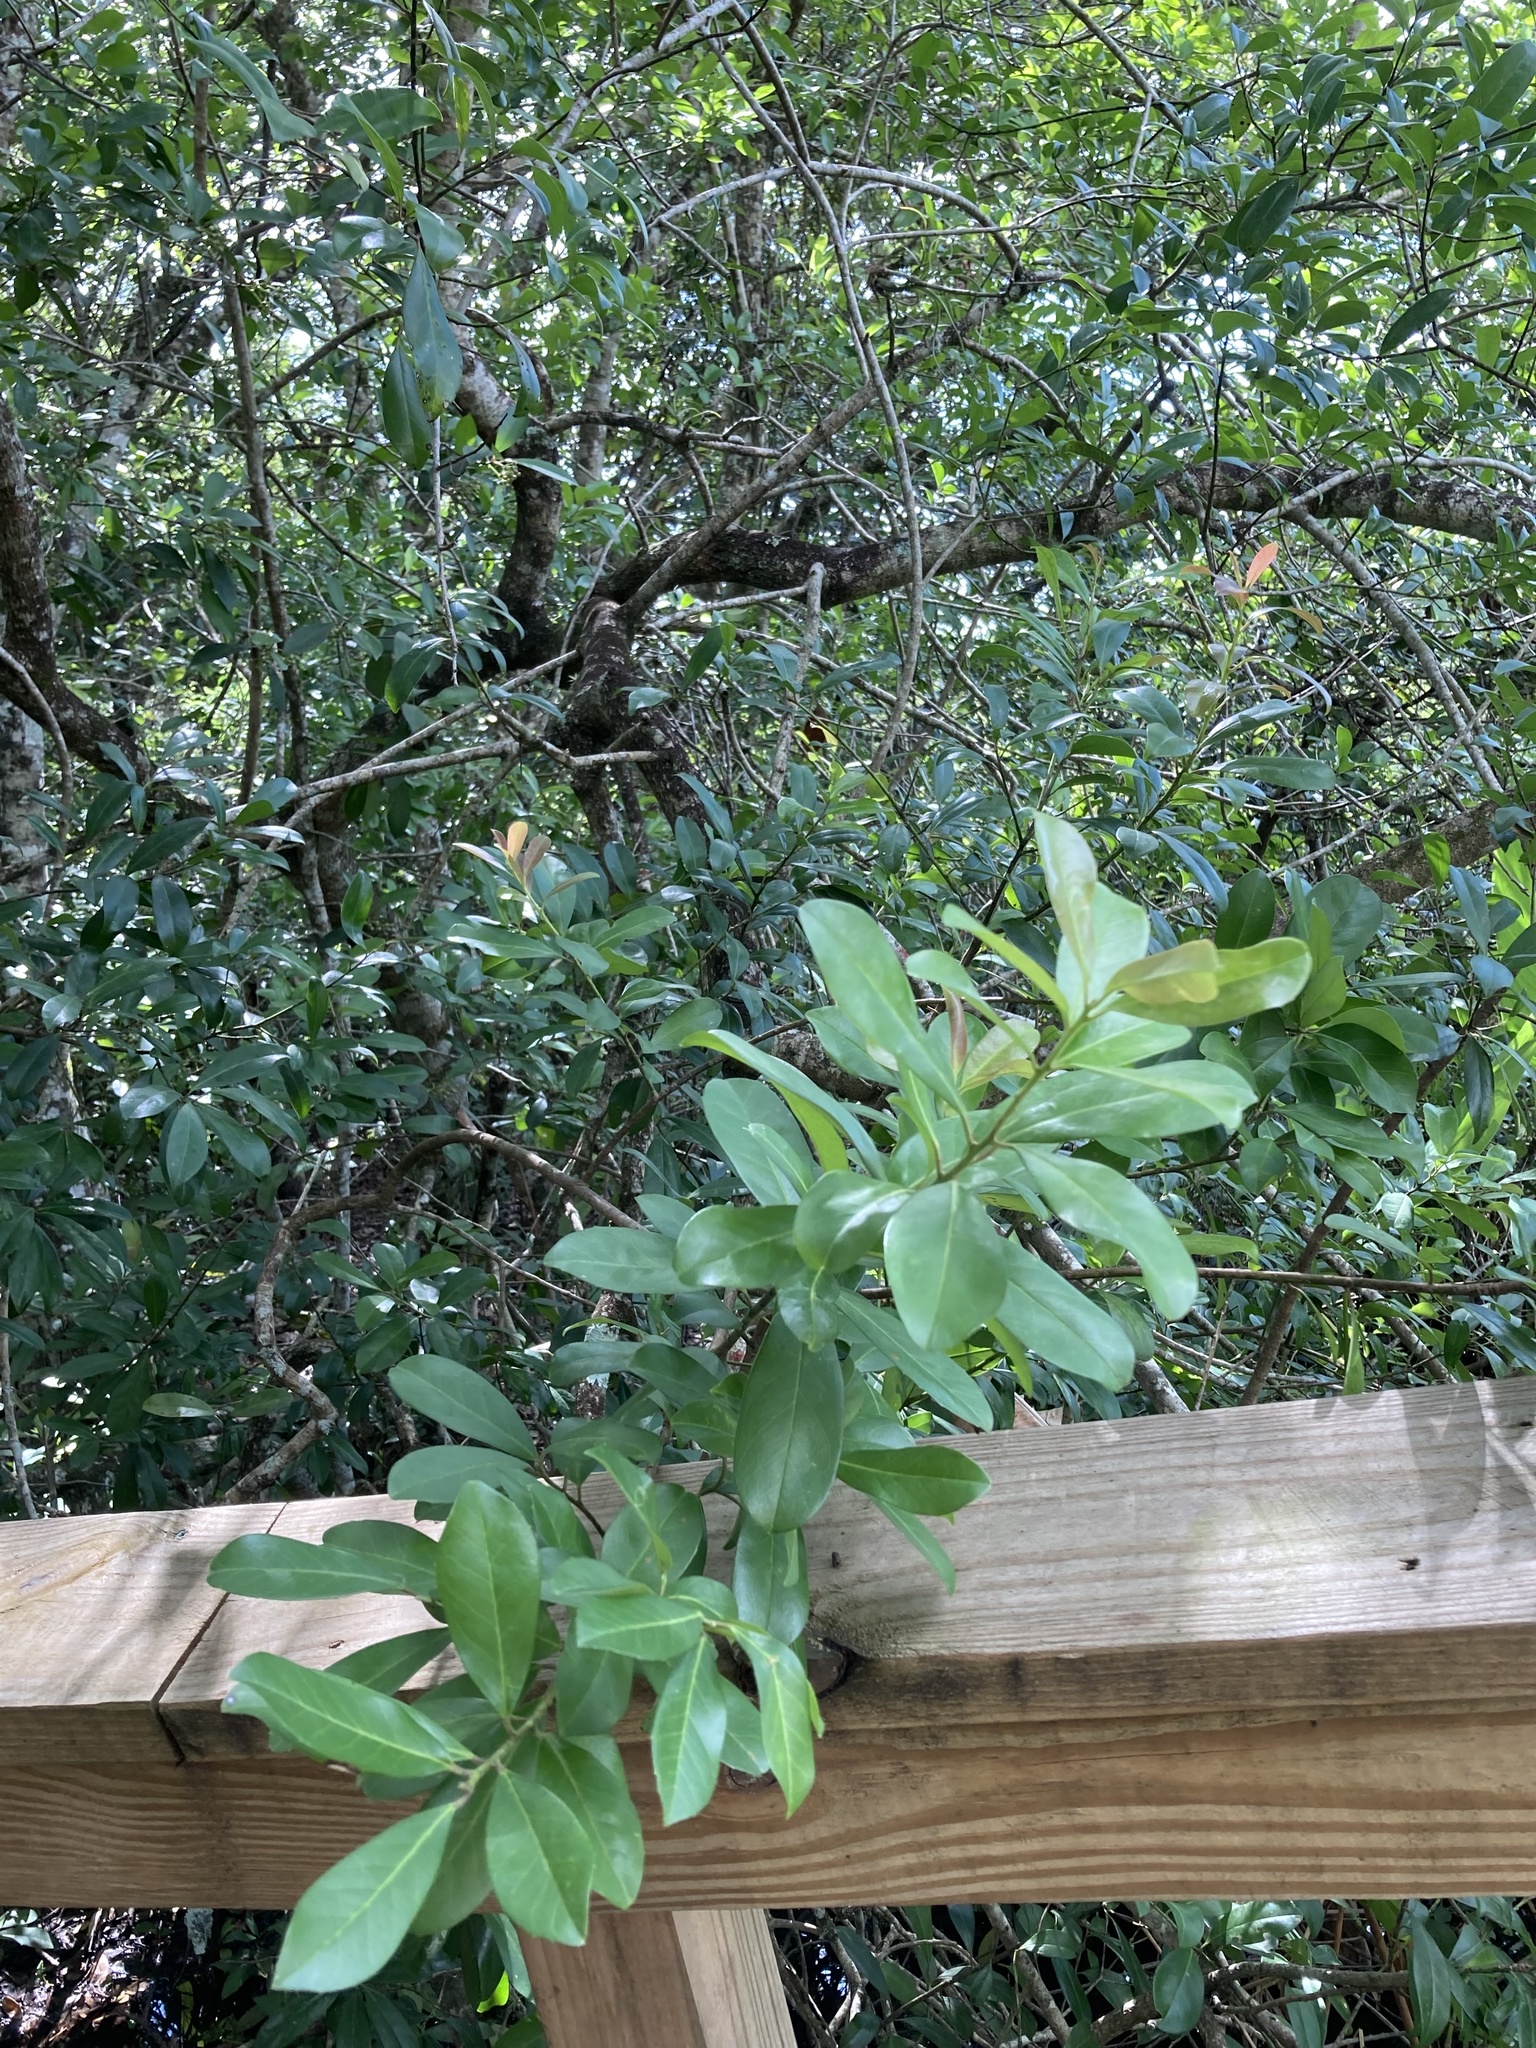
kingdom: Plantae
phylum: Tracheophyta
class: Magnoliopsida
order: Aquifoliales
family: Aquifoliaceae
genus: Ilex
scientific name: Ilex cassine
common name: Dahoon
